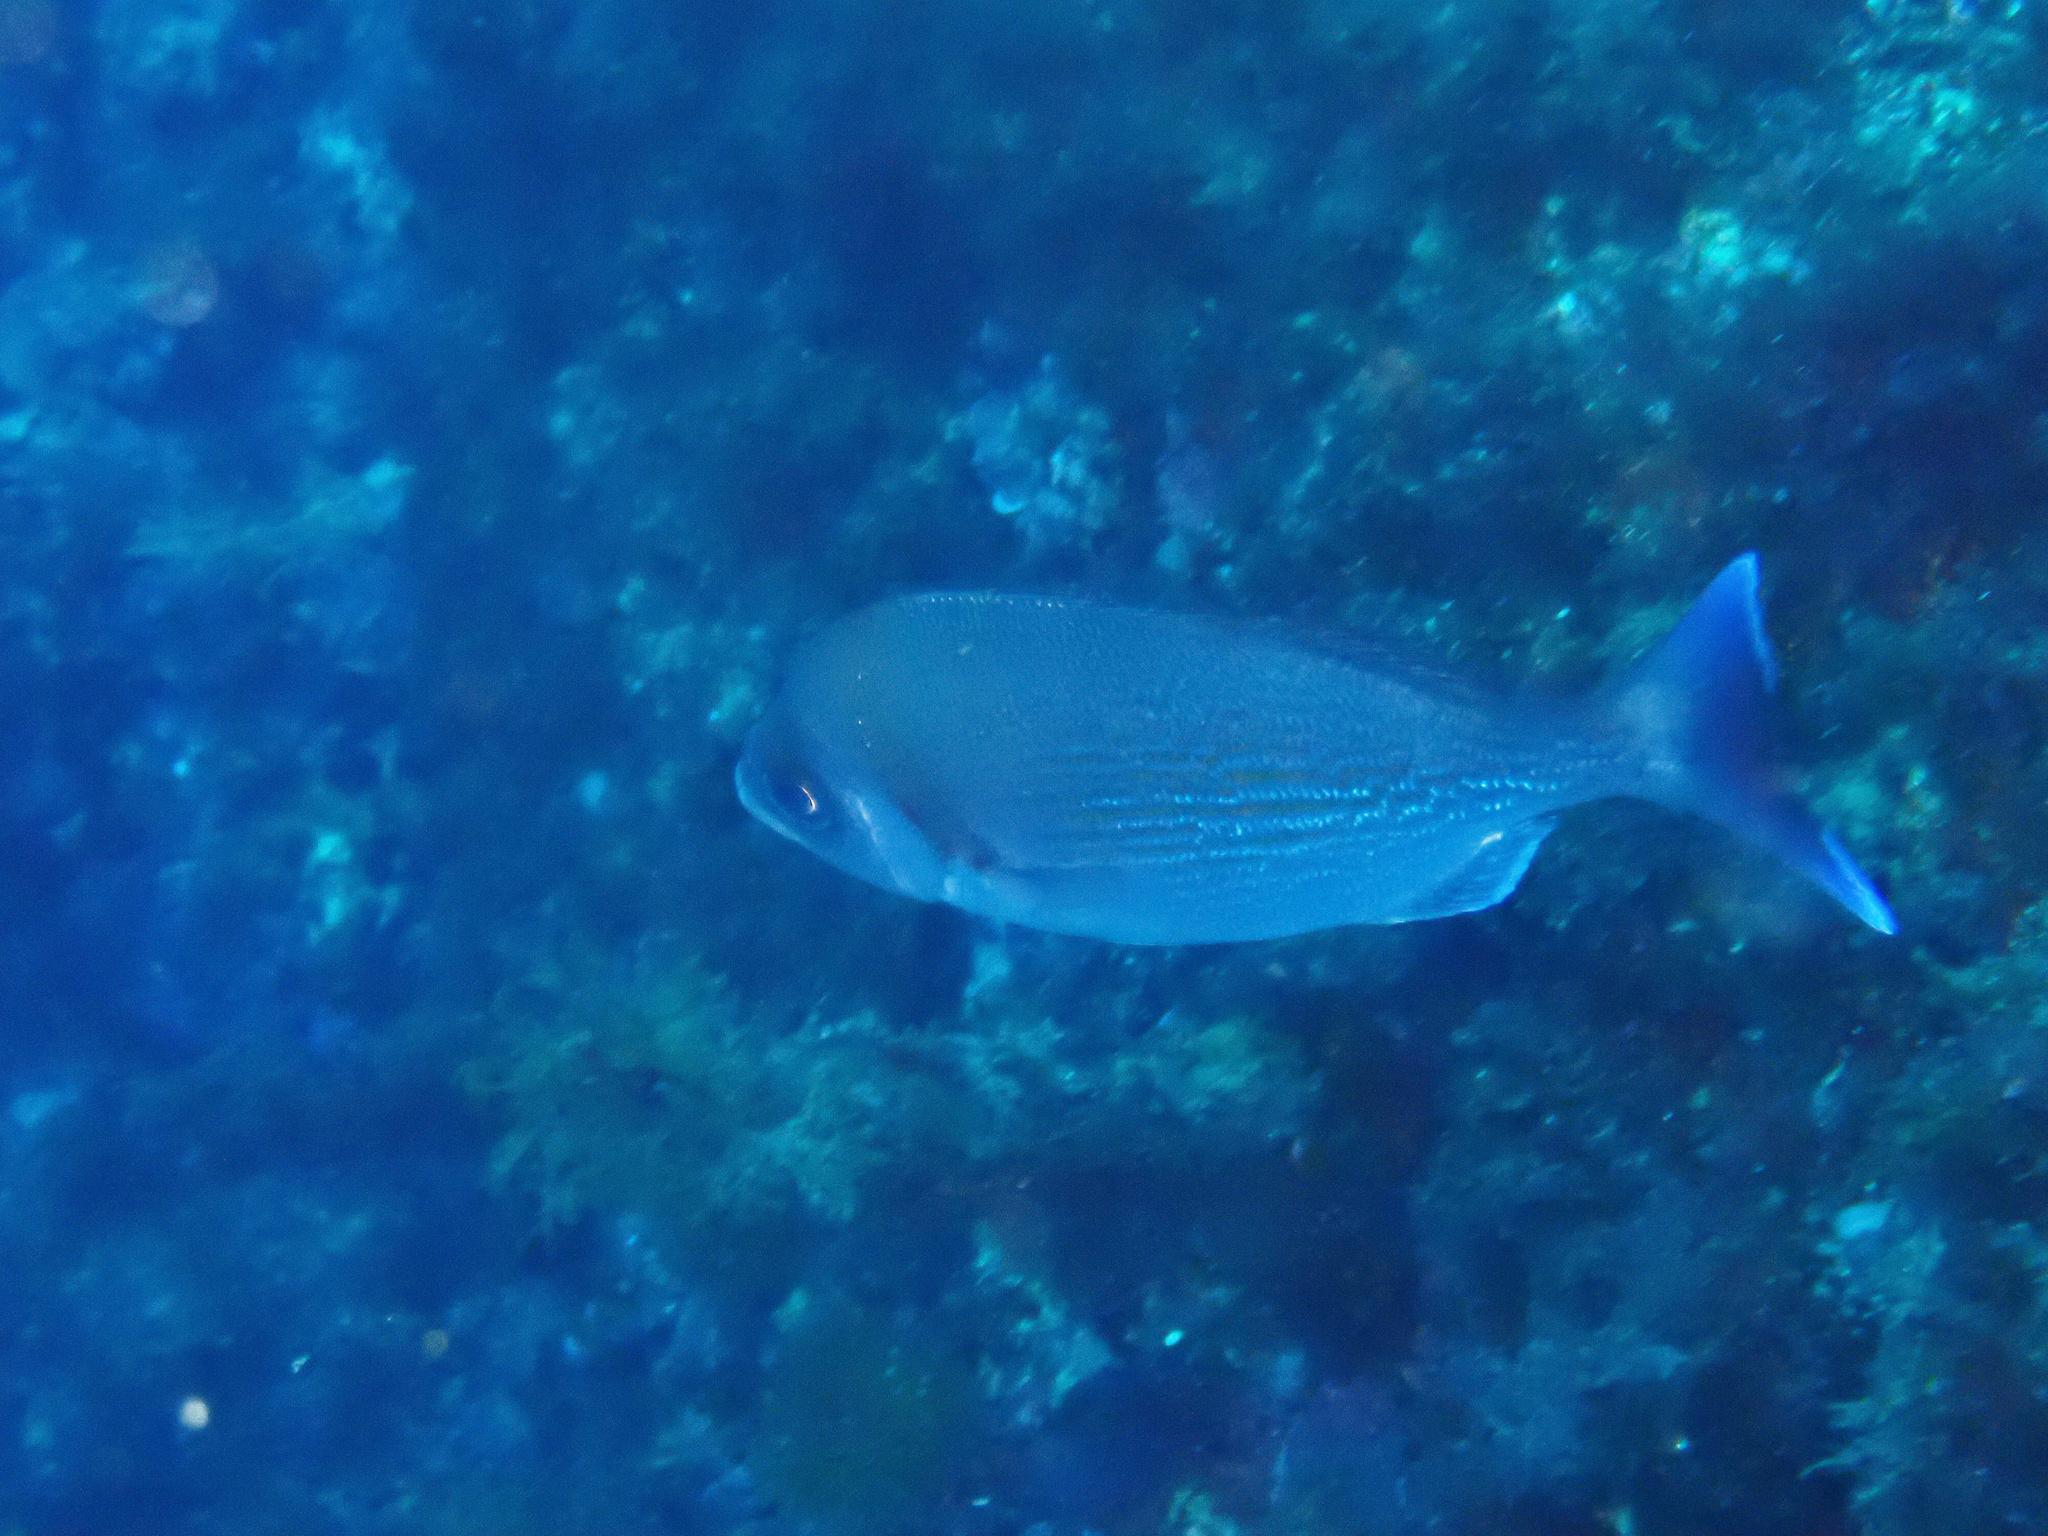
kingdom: Animalia
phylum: Chordata
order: Perciformes
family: Sparidae
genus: Spondyliosoma
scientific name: Spondyliosoma cantharus
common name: Black seabream
